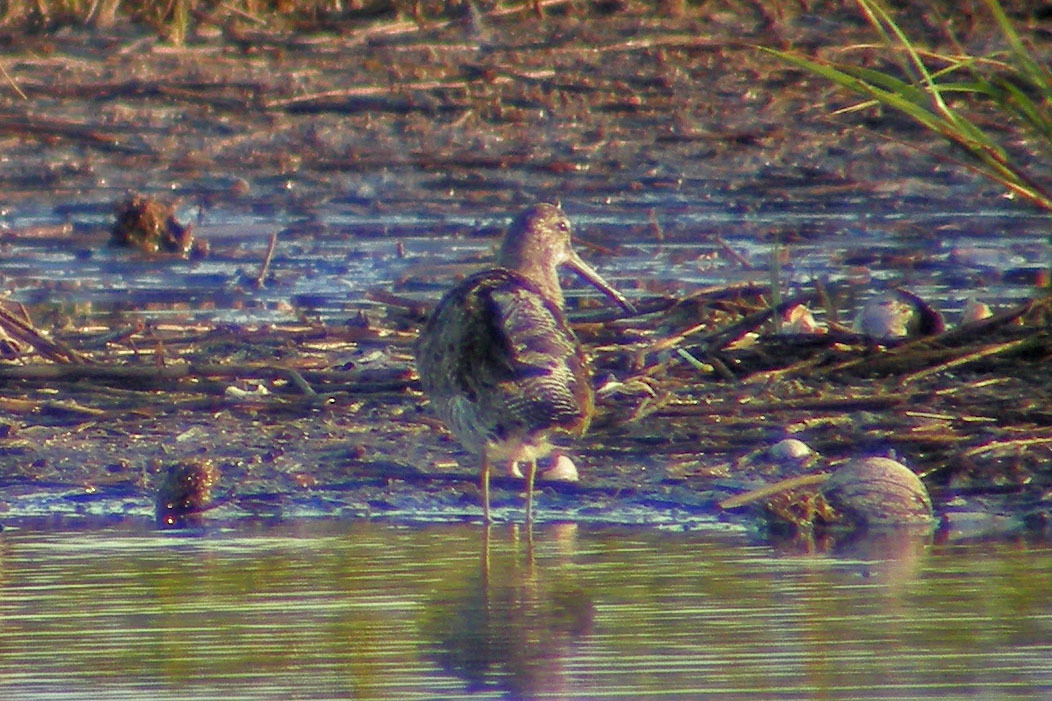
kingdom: Animalia
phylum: Chordata
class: Aves
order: Charadriiformes
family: Scolopacidae
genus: Limnodromus
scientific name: Limnodromus griseus
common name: Short-billed dowitcher
